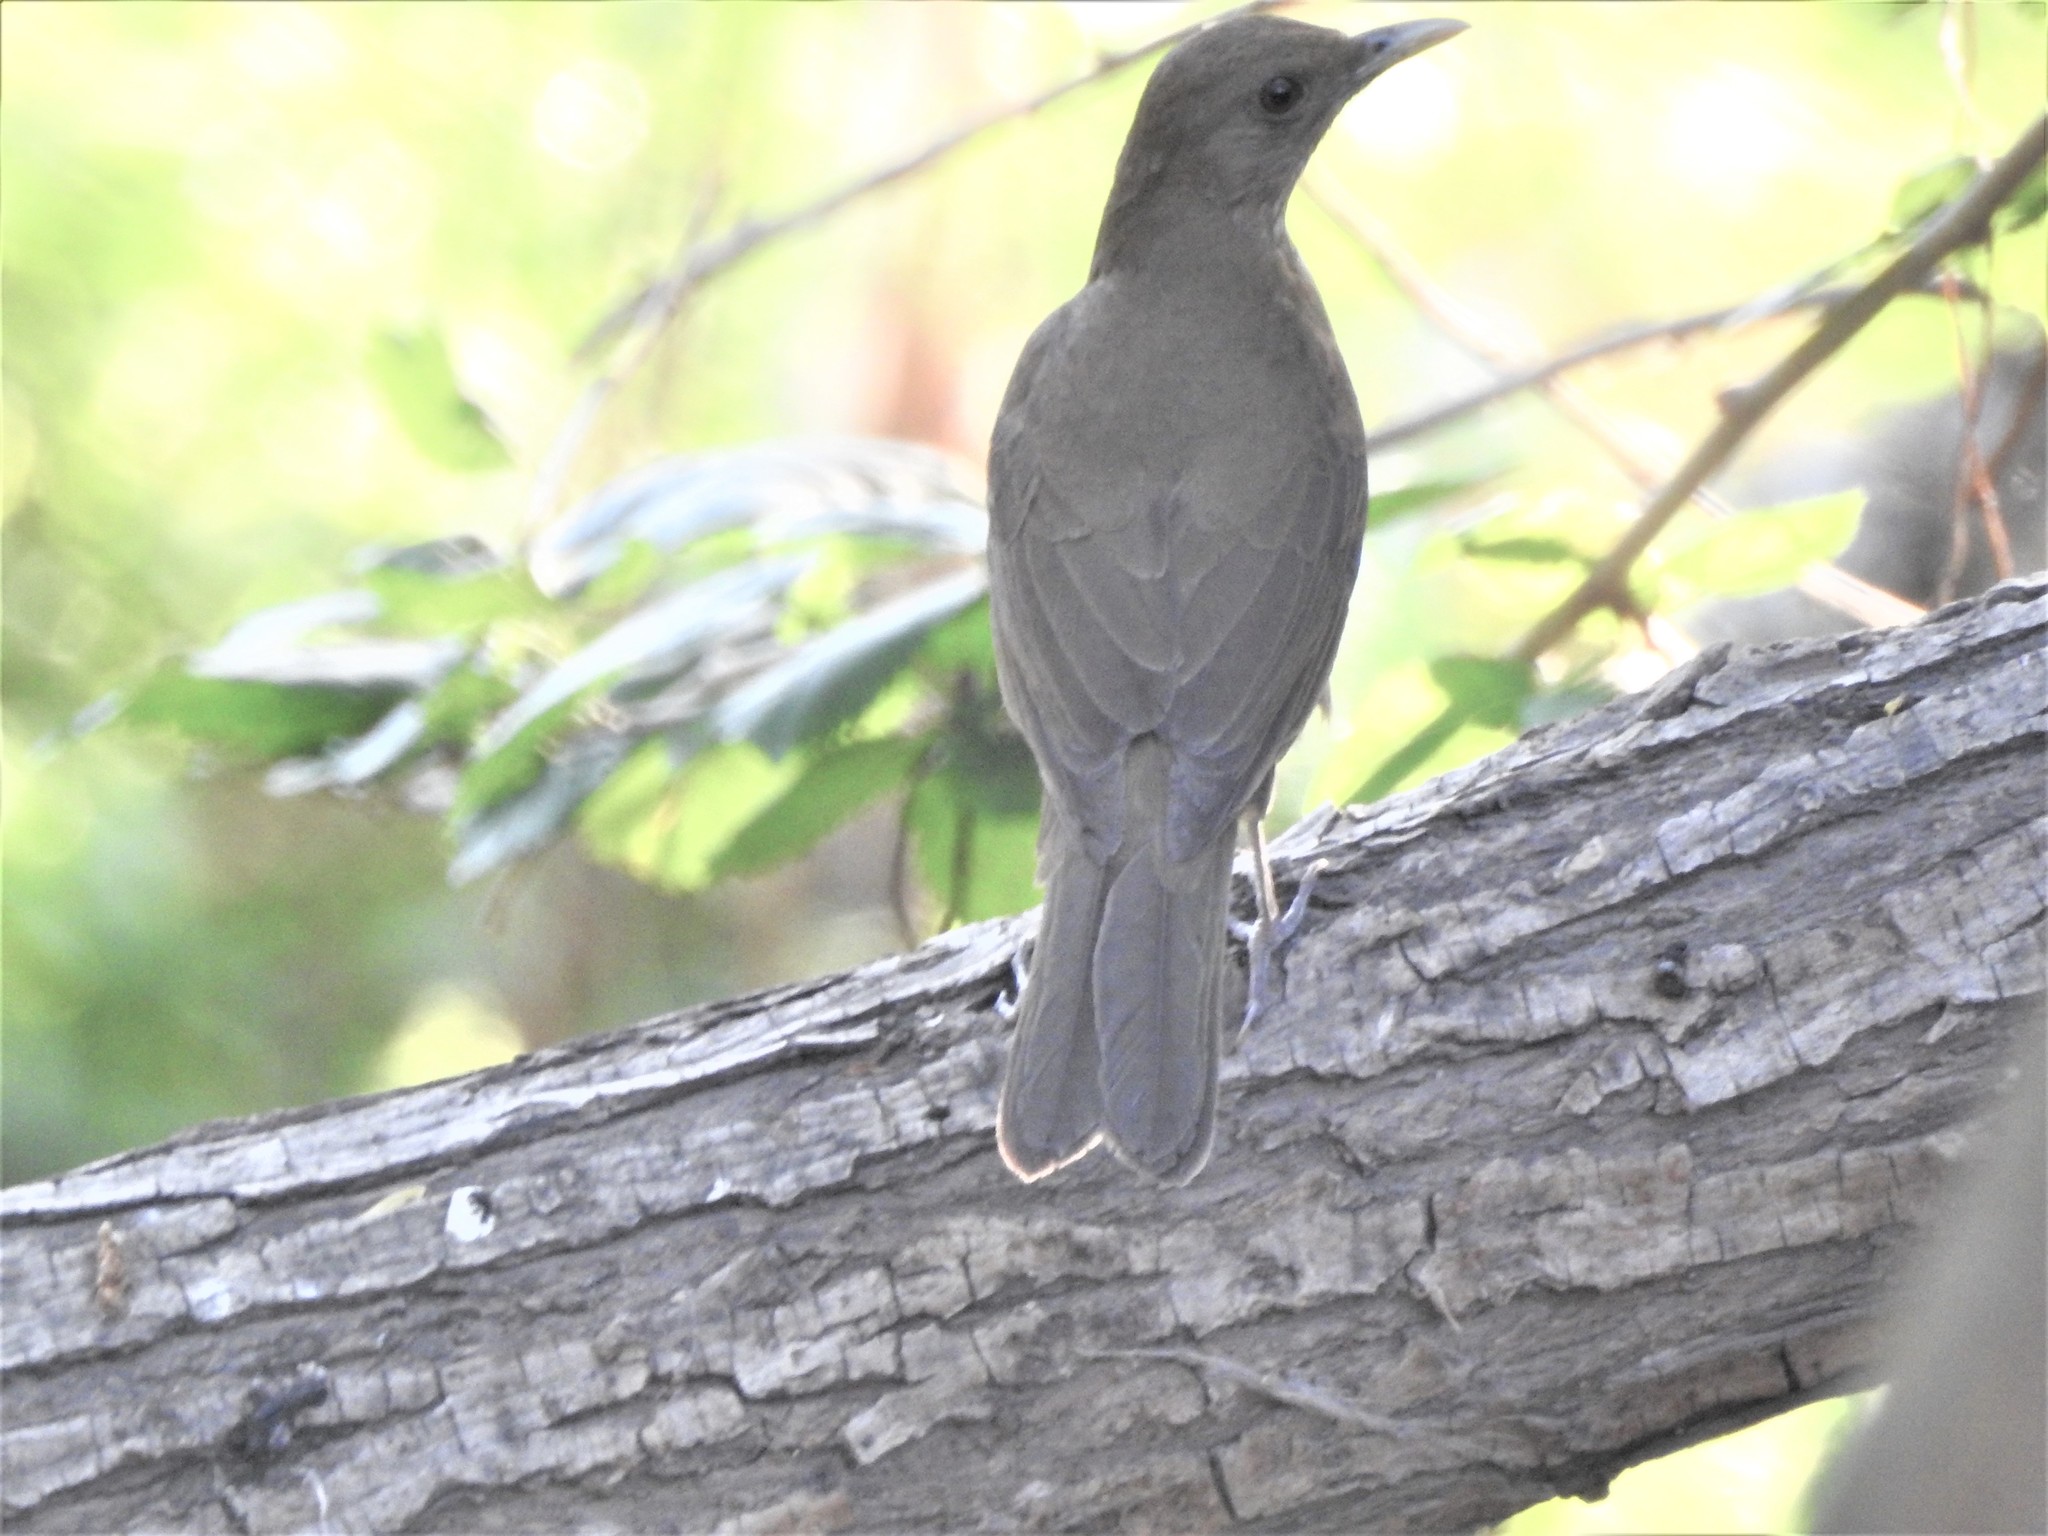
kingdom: Animalia
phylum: Chordata
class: Aves
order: Passeriformes
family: Turdidae
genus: Turdus
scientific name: Turdus grayi
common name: Clay-colored thrush
